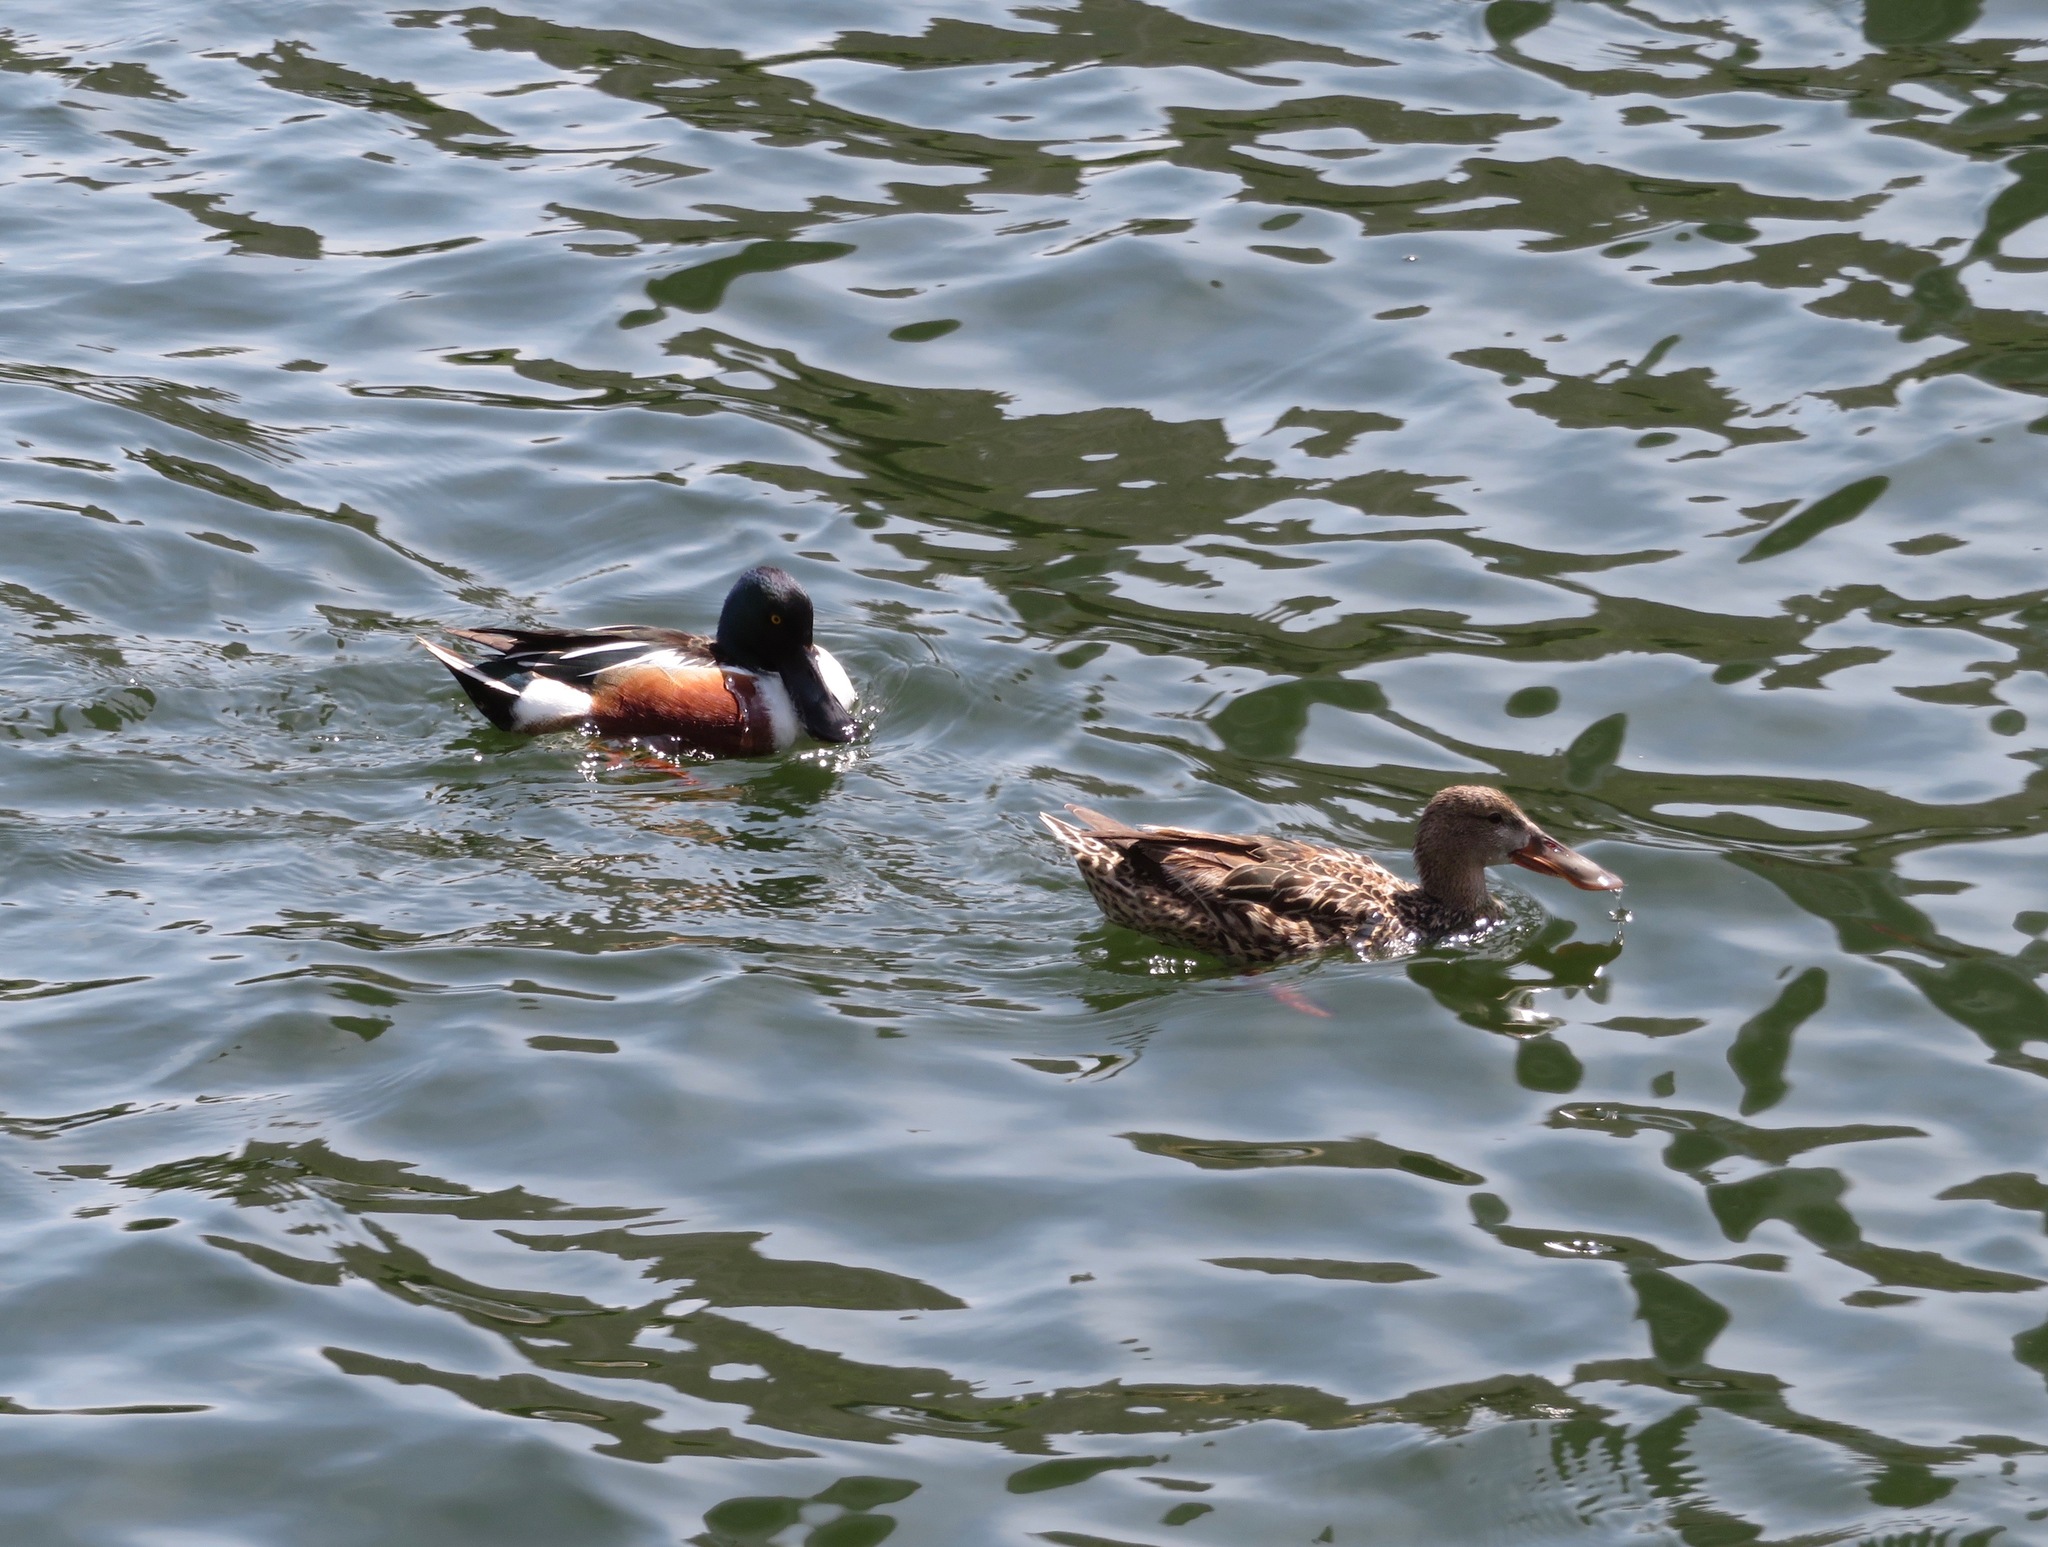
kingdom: Animalia
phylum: Chordata
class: Aves
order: Anseriformes
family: Anatidae
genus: Spatula
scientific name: Spatula clypeata
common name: Northern shoveler
